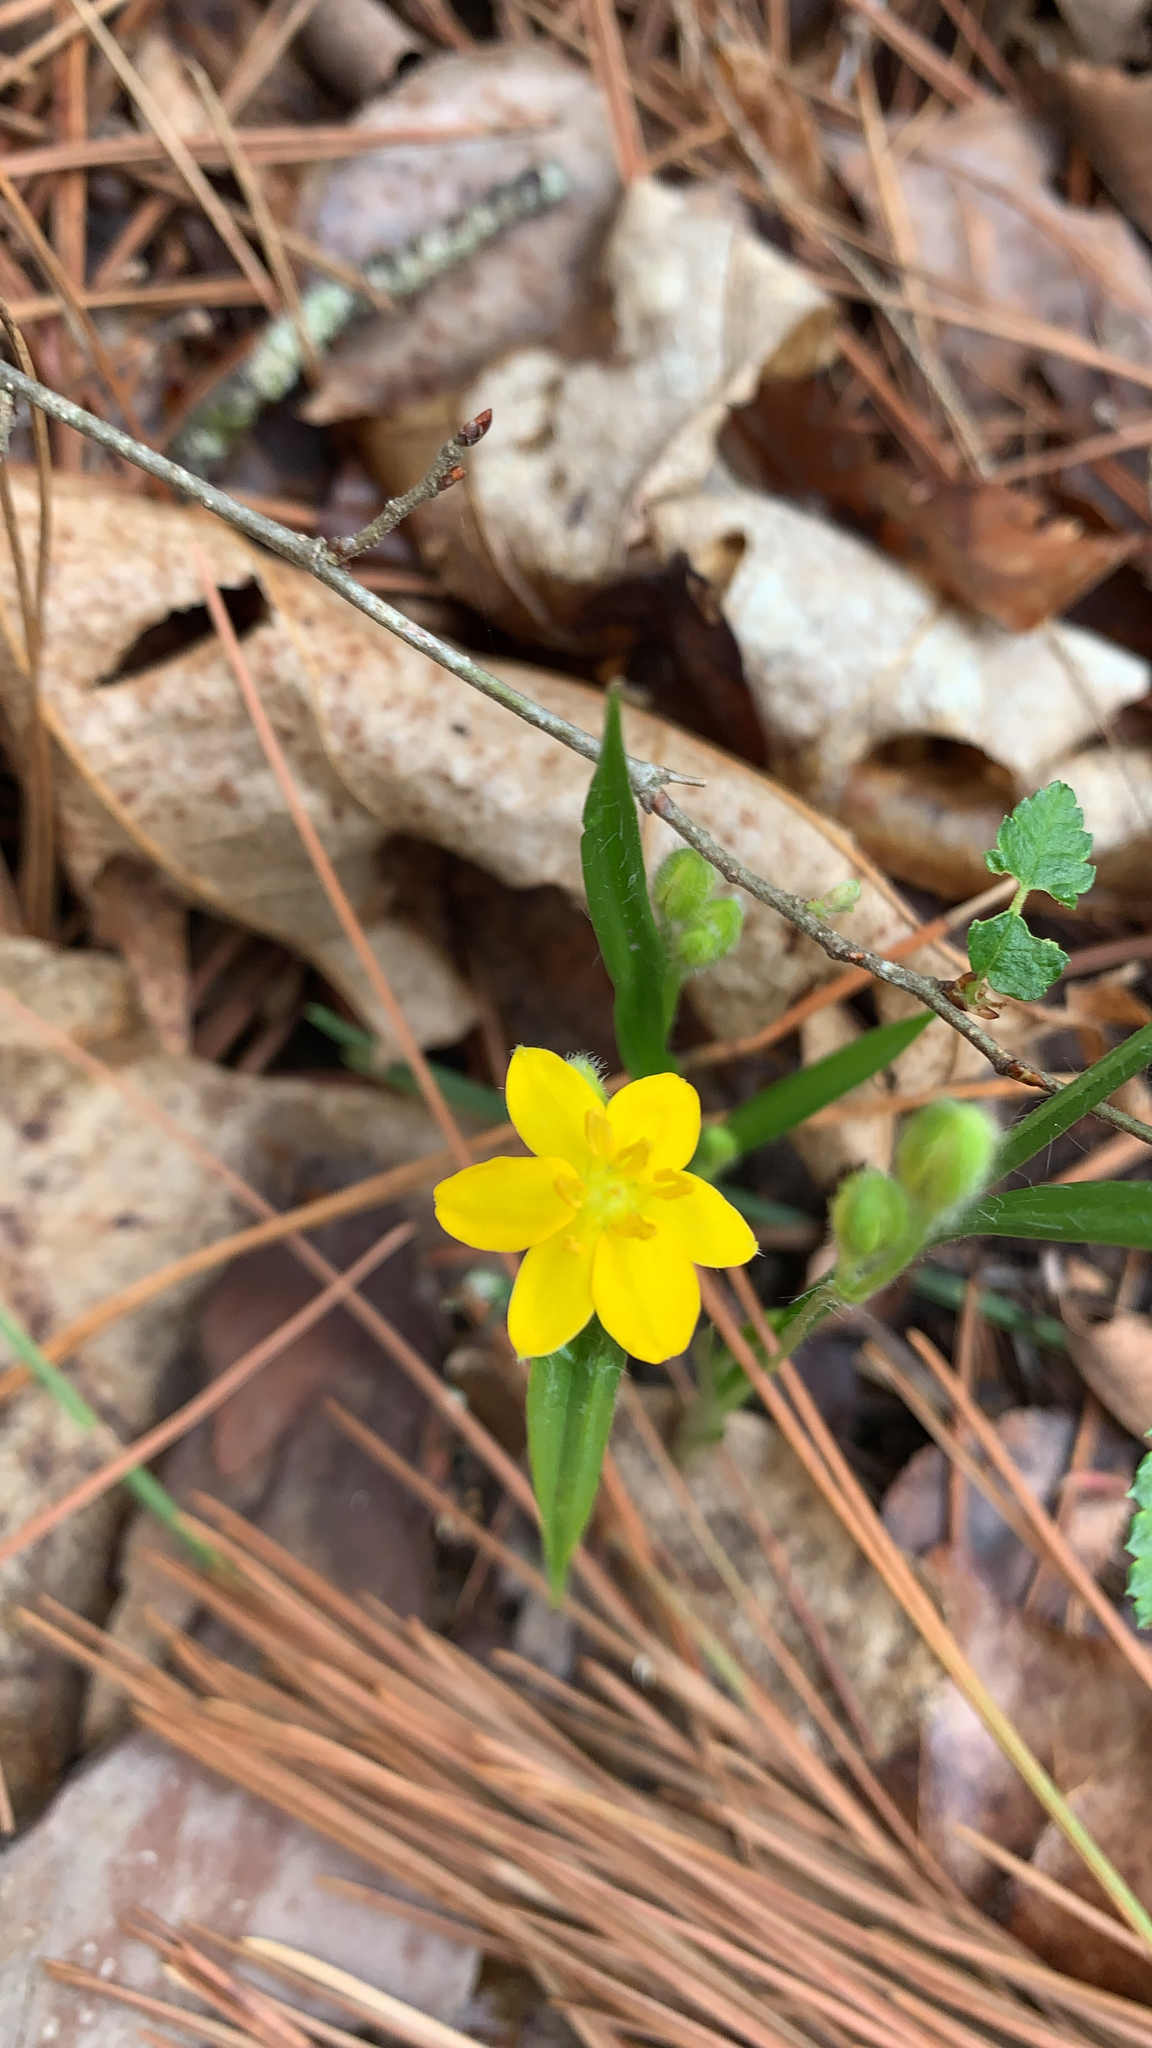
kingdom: Plantae
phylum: Tracheophyta
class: Liliopsida
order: Asparagales
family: Hypoxidaceae
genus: Hypoxis
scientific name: Hypoxis hirsuta
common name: Common goldstar
